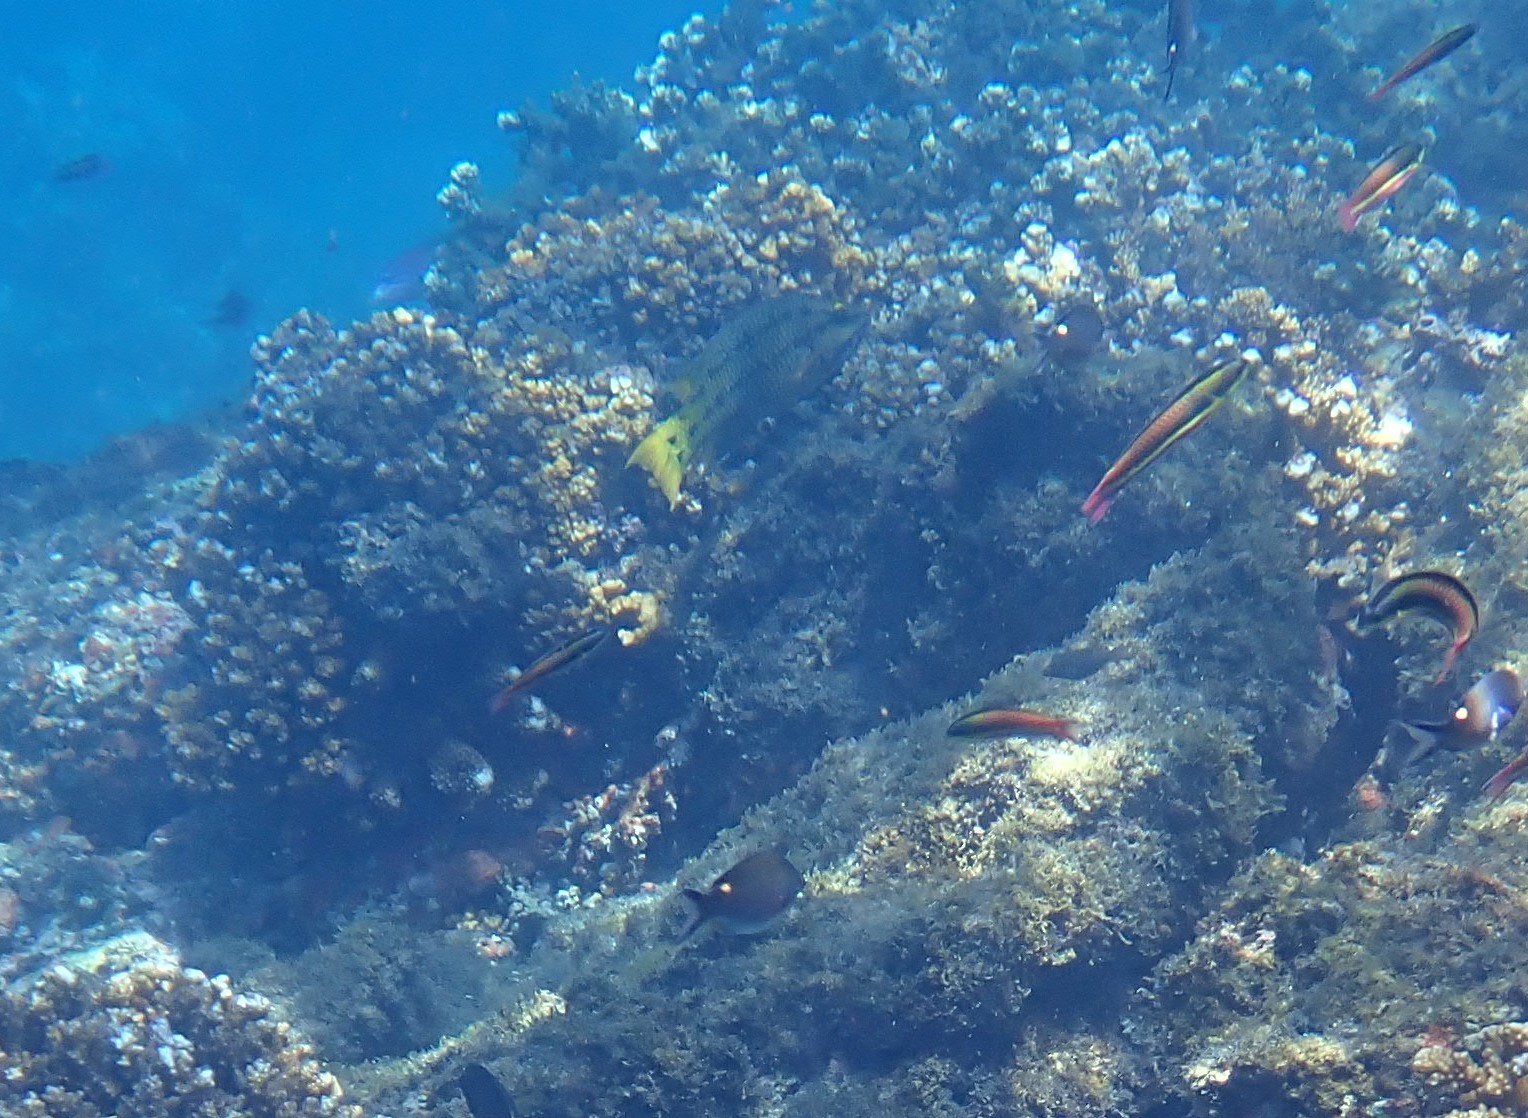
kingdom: Animalia
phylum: Chordata
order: Perciformes
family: Labridae
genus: Thalassoma
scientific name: Thalassoma lucasanum
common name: Cortez rainbow wrasse
